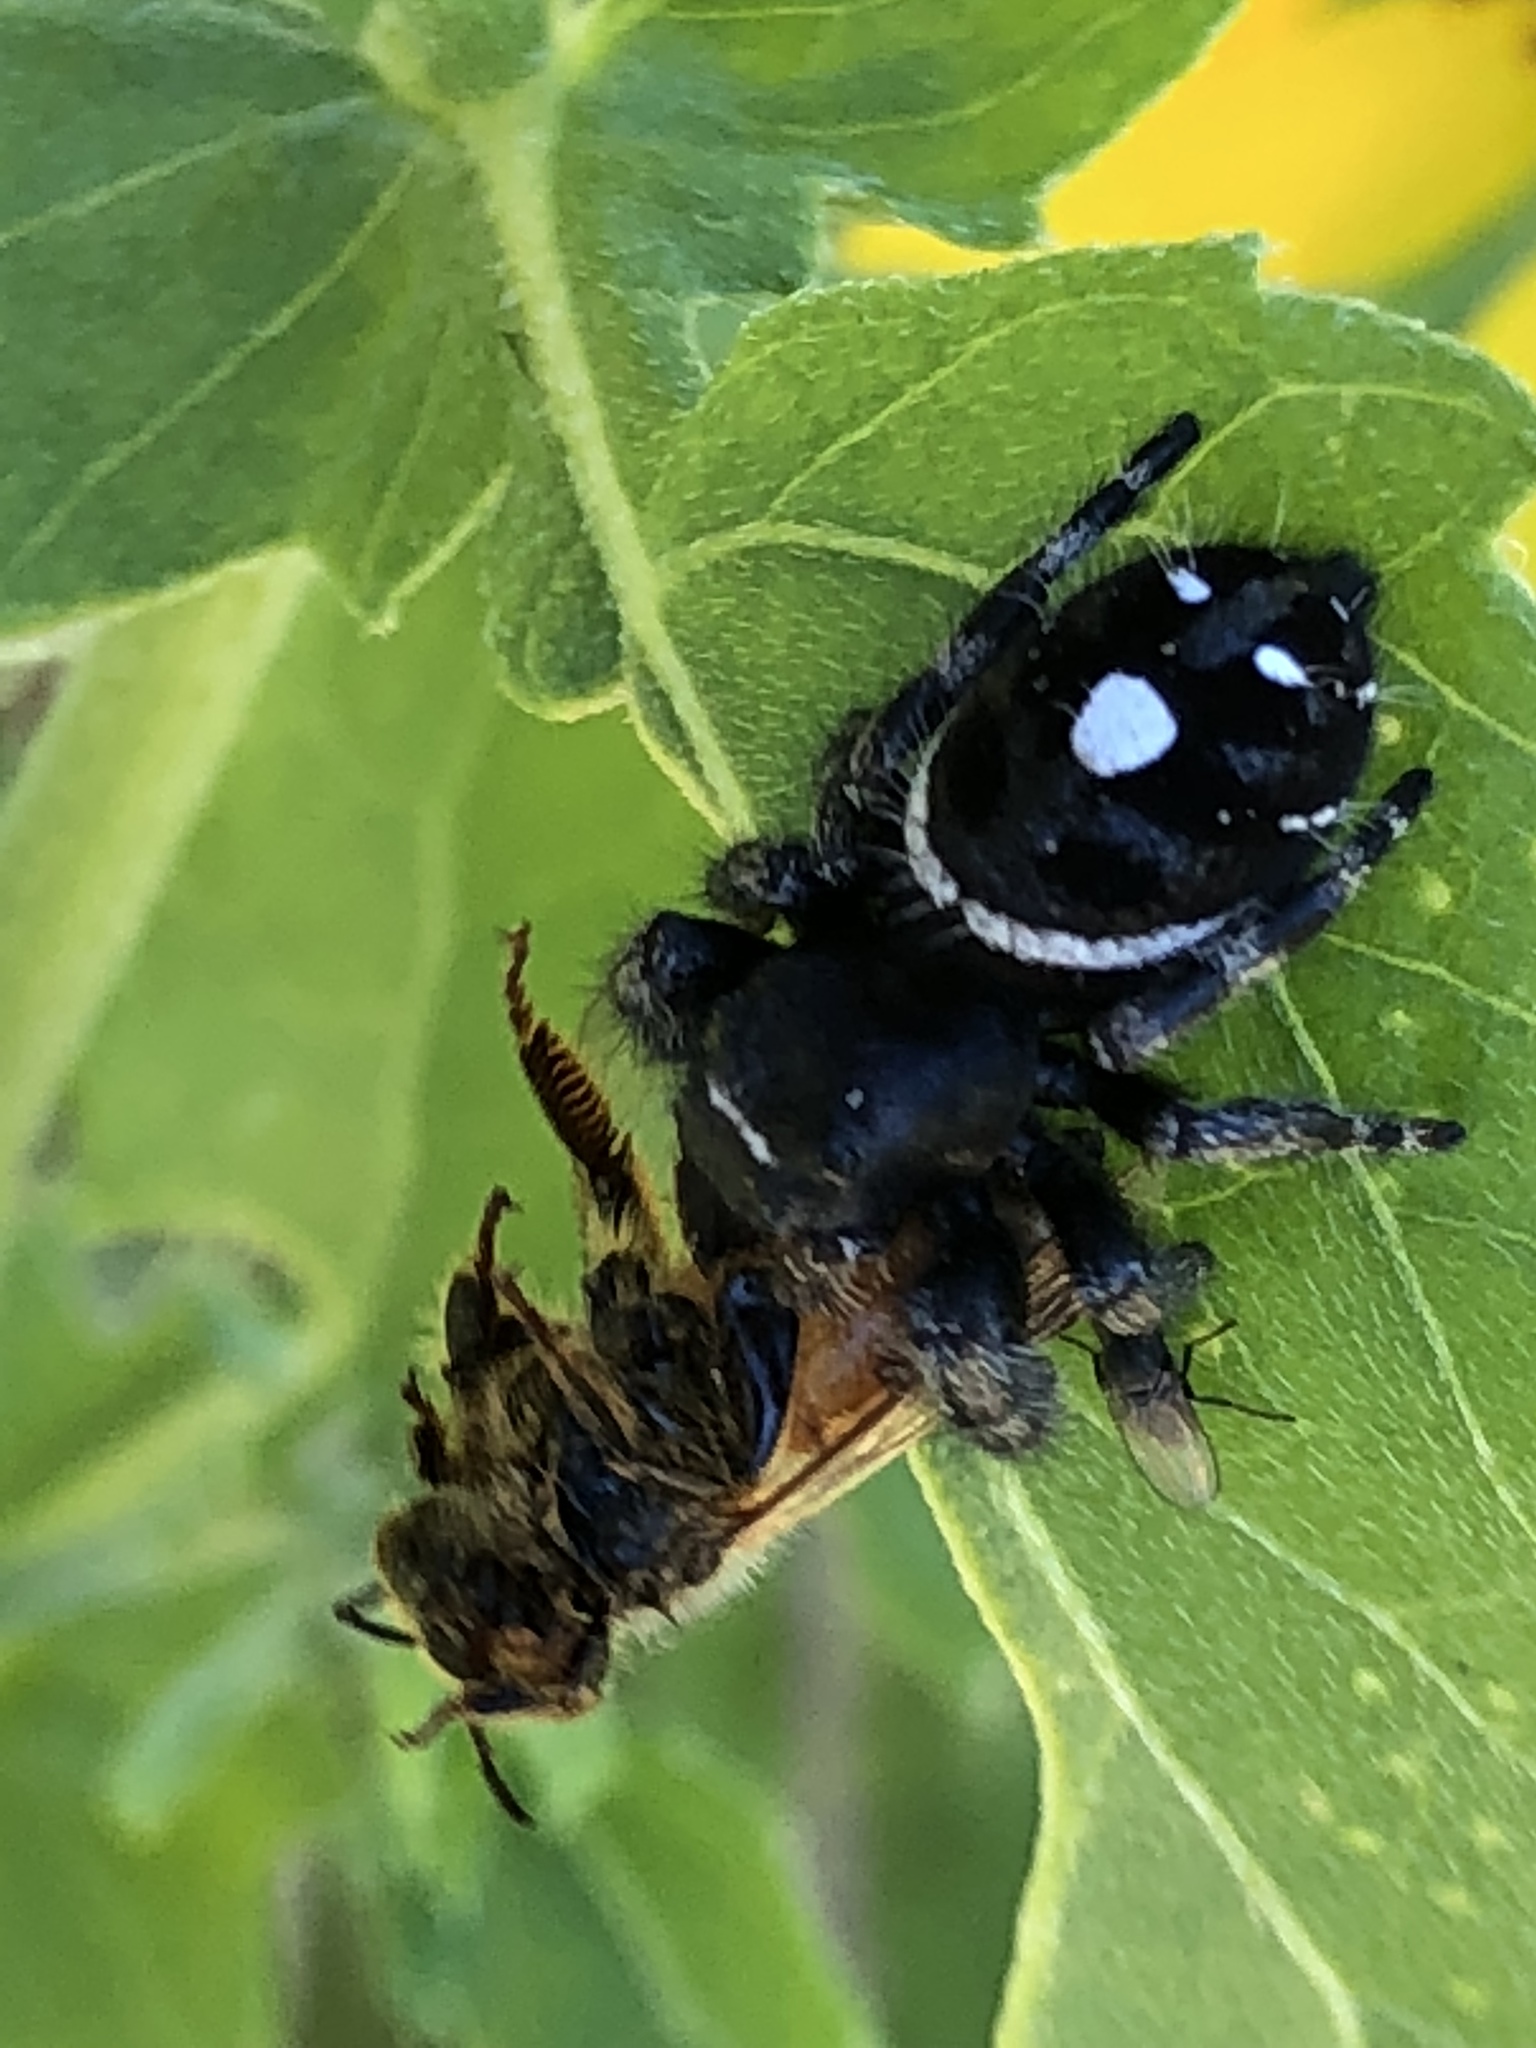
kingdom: Animalia
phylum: Arthropoda
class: Arachnida
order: Araneae
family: Salticidae
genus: Phidippus
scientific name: Phidippus audax
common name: Bold jumper
